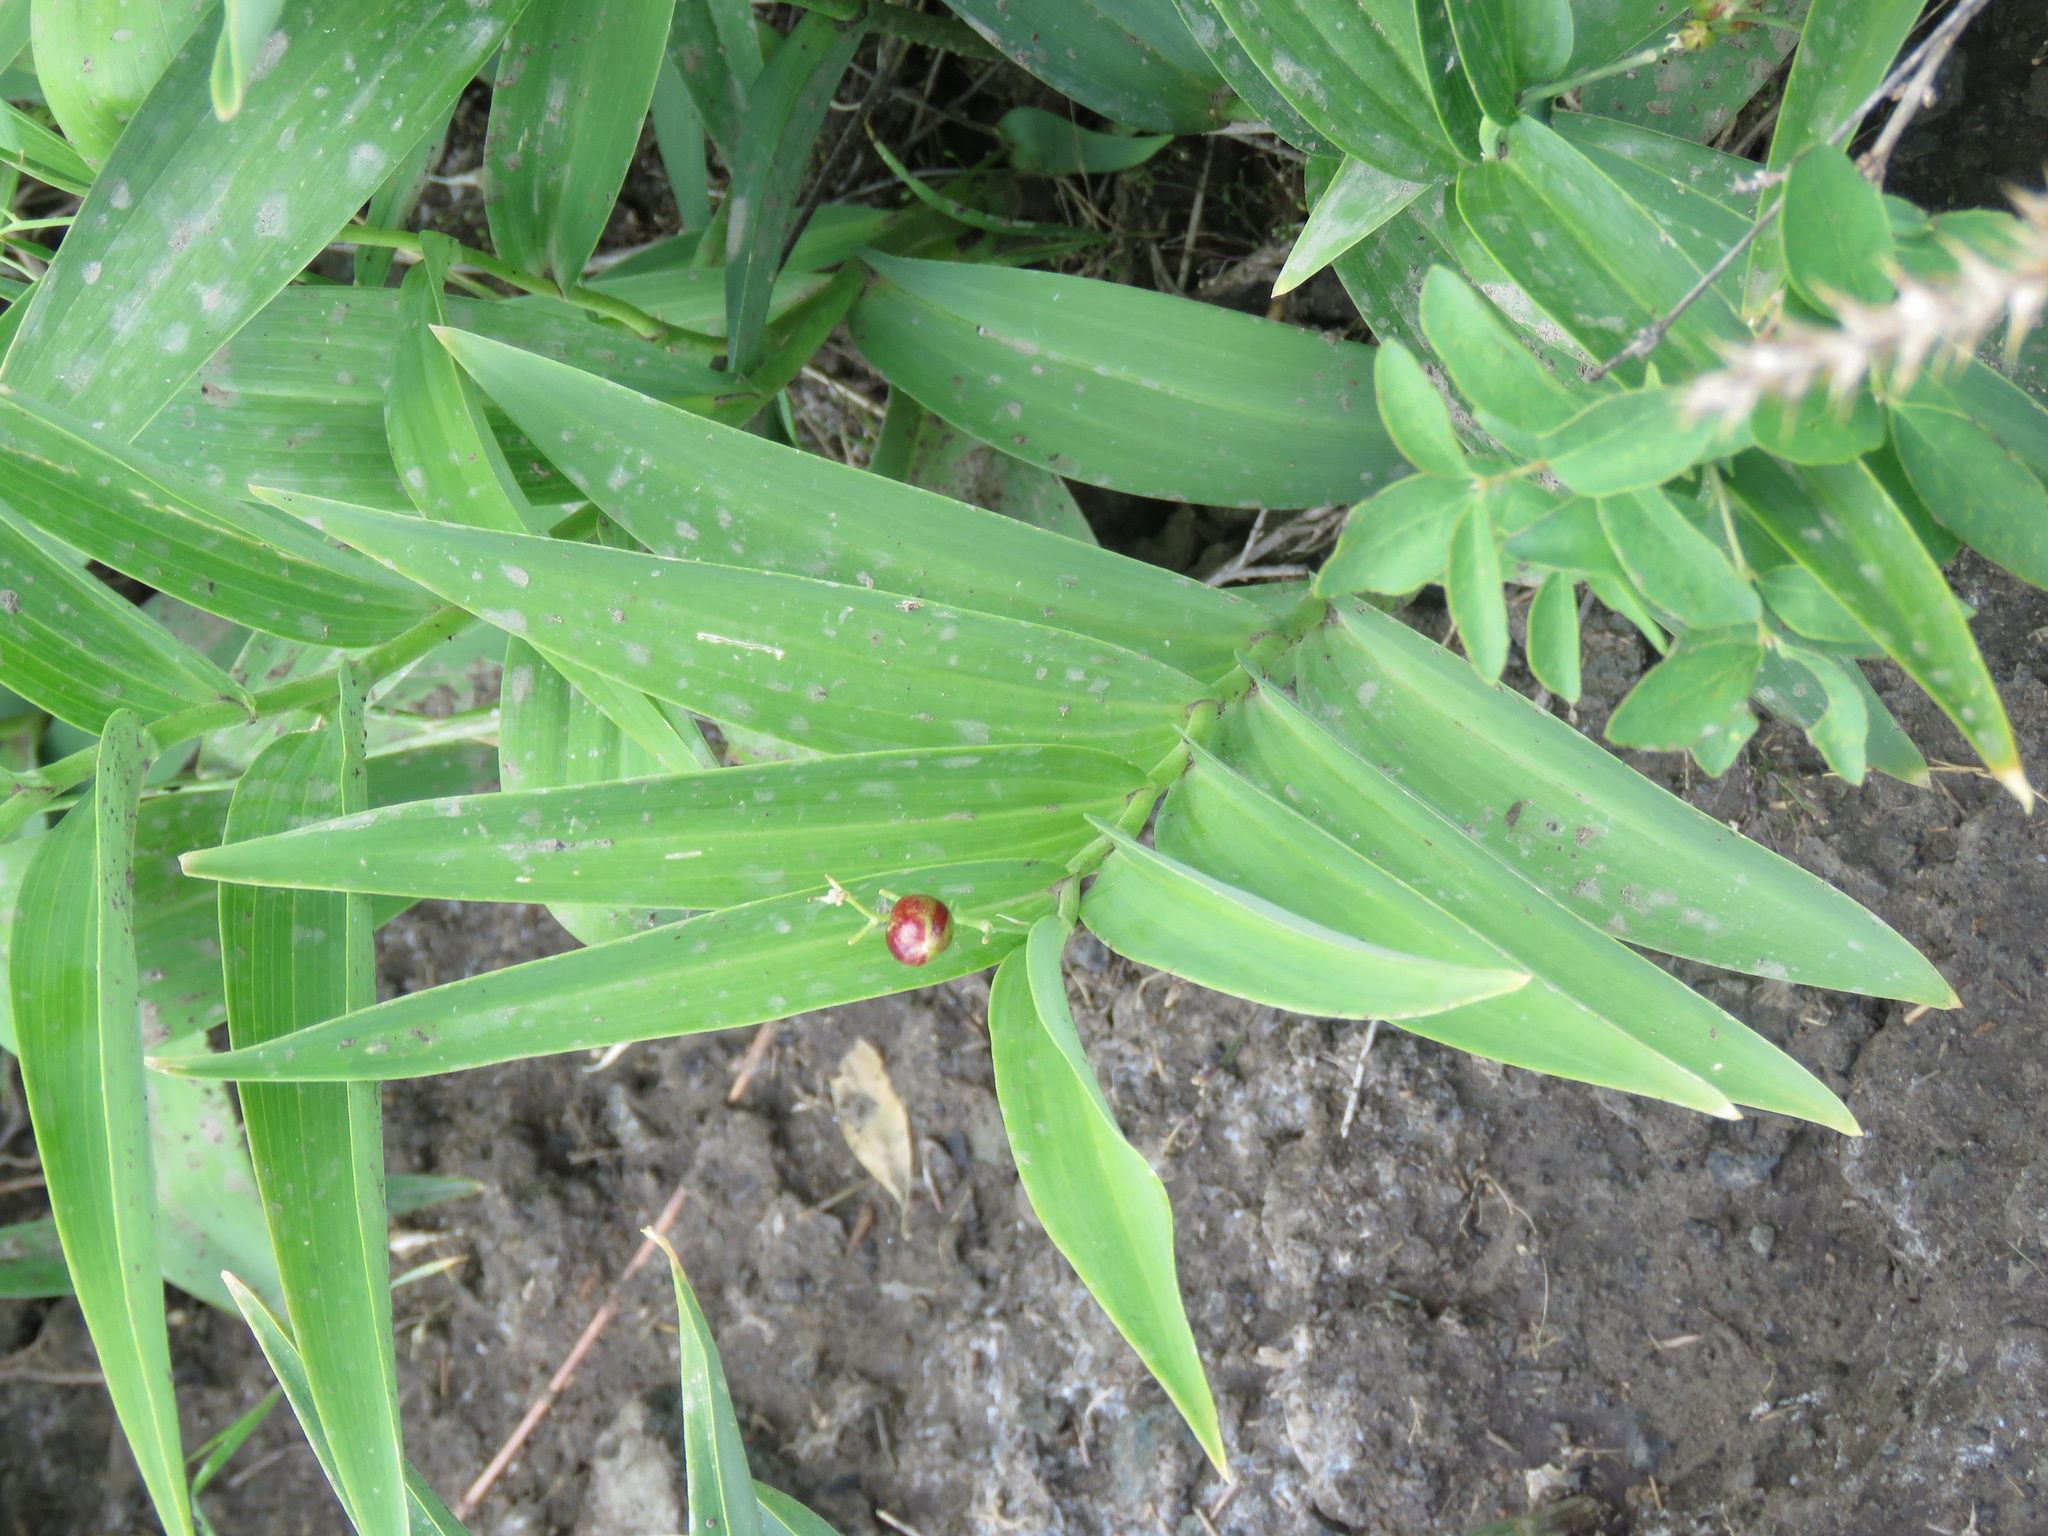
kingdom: Plantae
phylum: Tracheophyta
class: Liliopsida
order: Asparagales
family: Asparagaceae
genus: Maianthemum
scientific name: Maianthemum stellatum
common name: Little false solomon's seal
